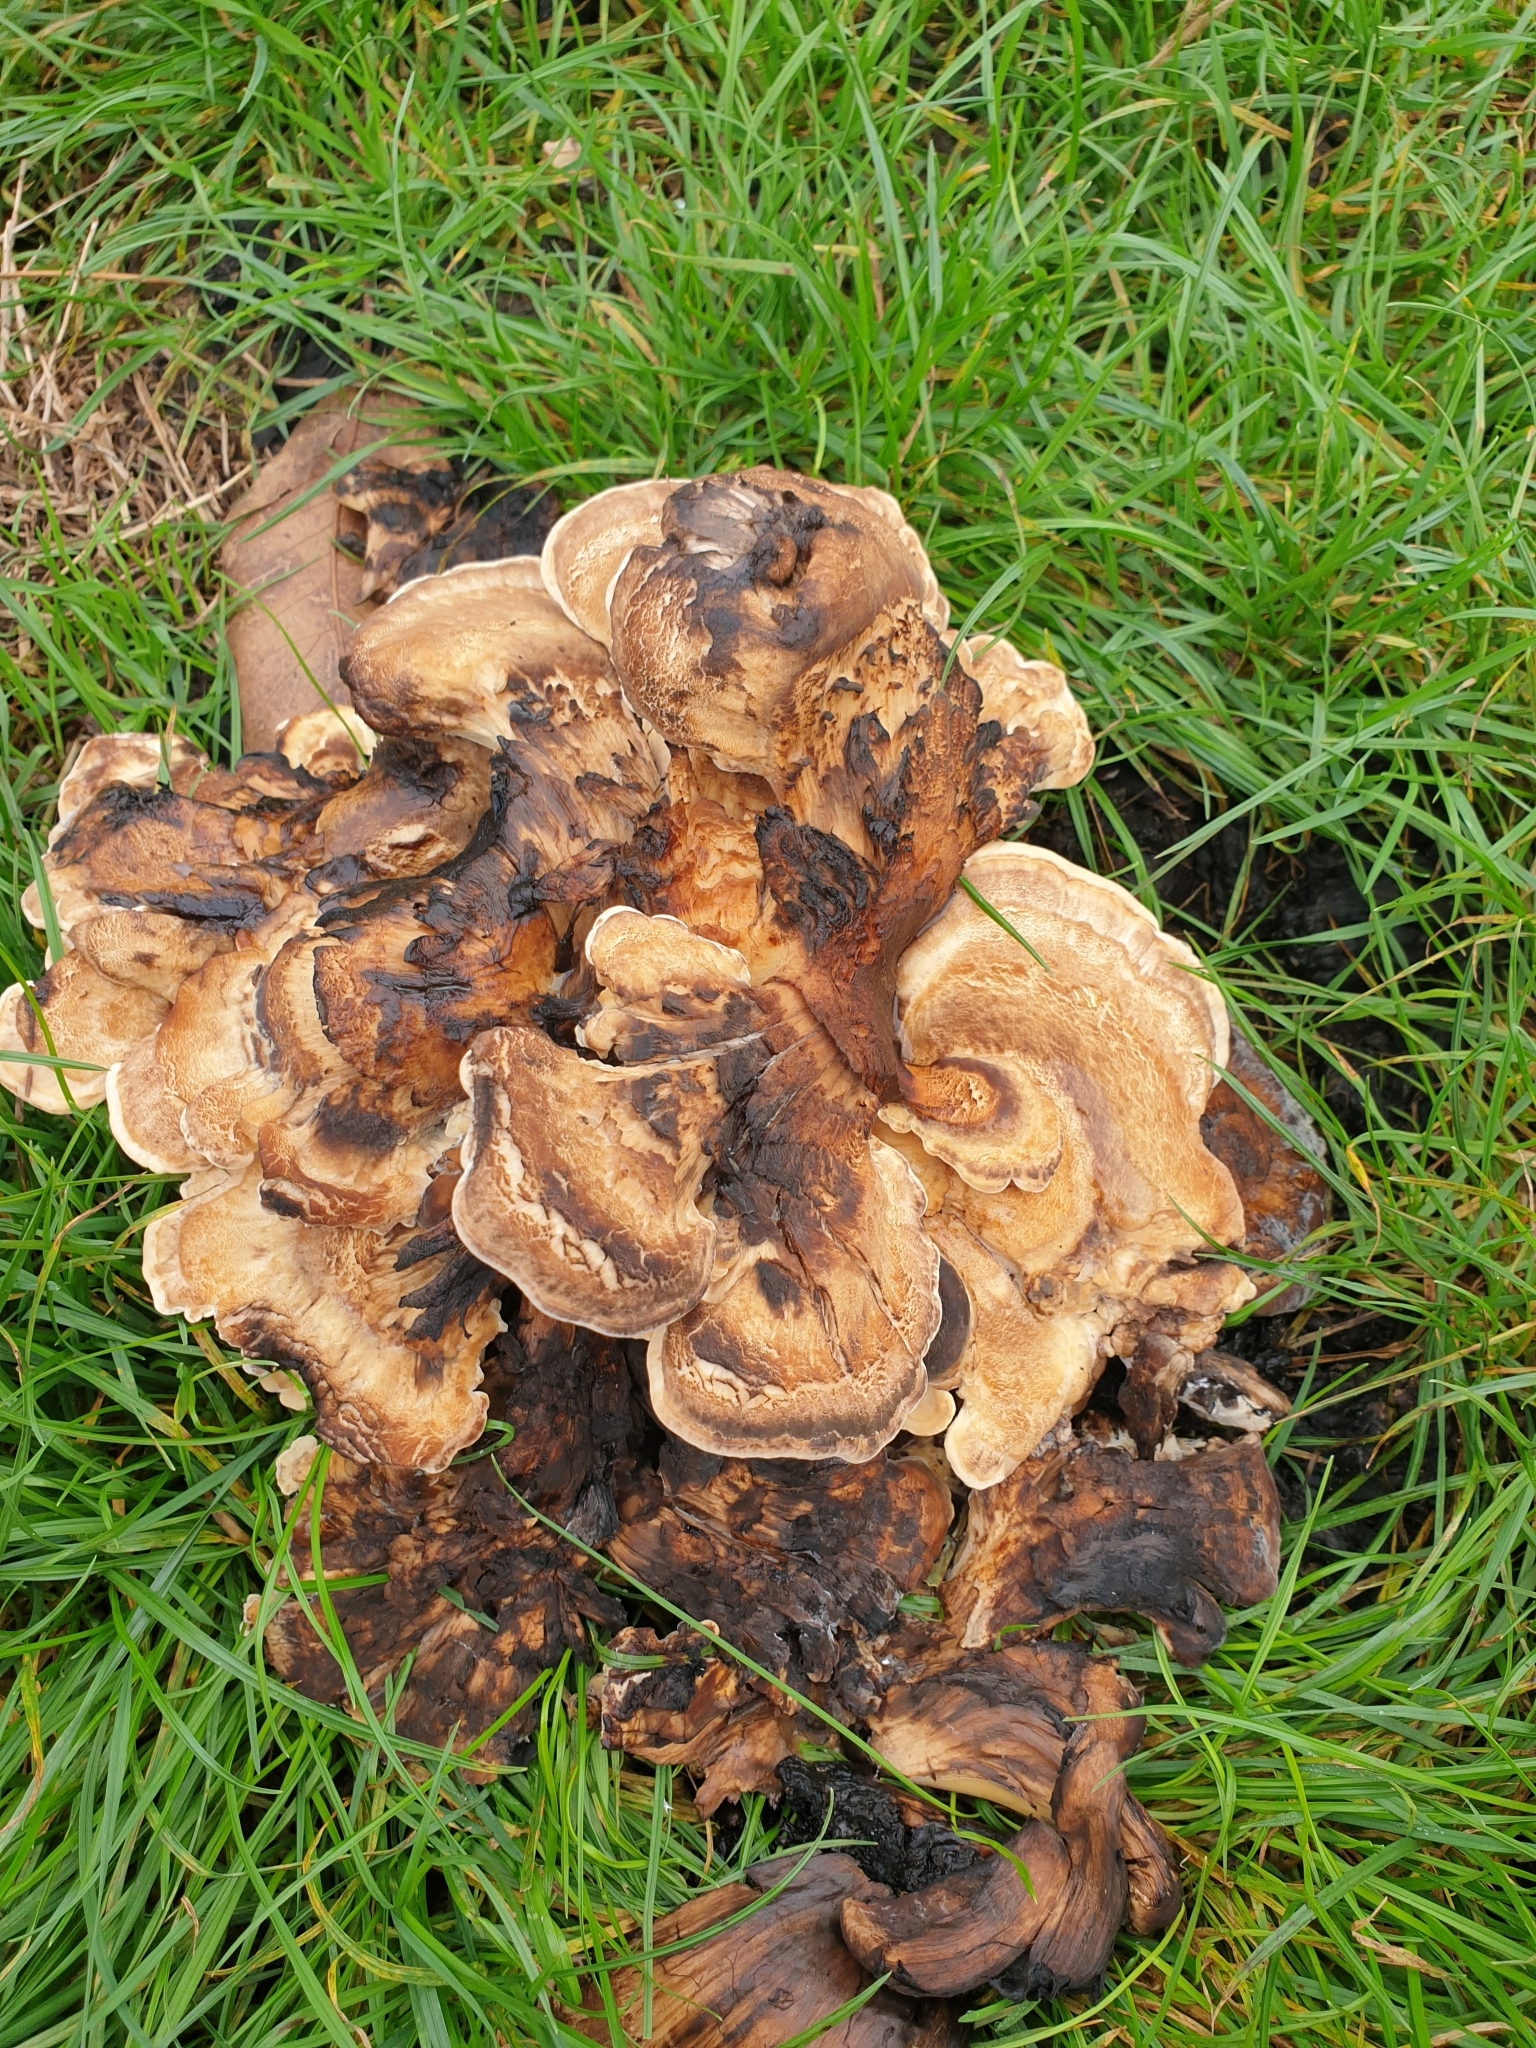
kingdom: Fungi
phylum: Basidiomycota
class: Agaricomycetes
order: Polyporales
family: Meripilaceae
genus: Meripilus
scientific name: Meripilus giganteus
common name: Giant polypore
